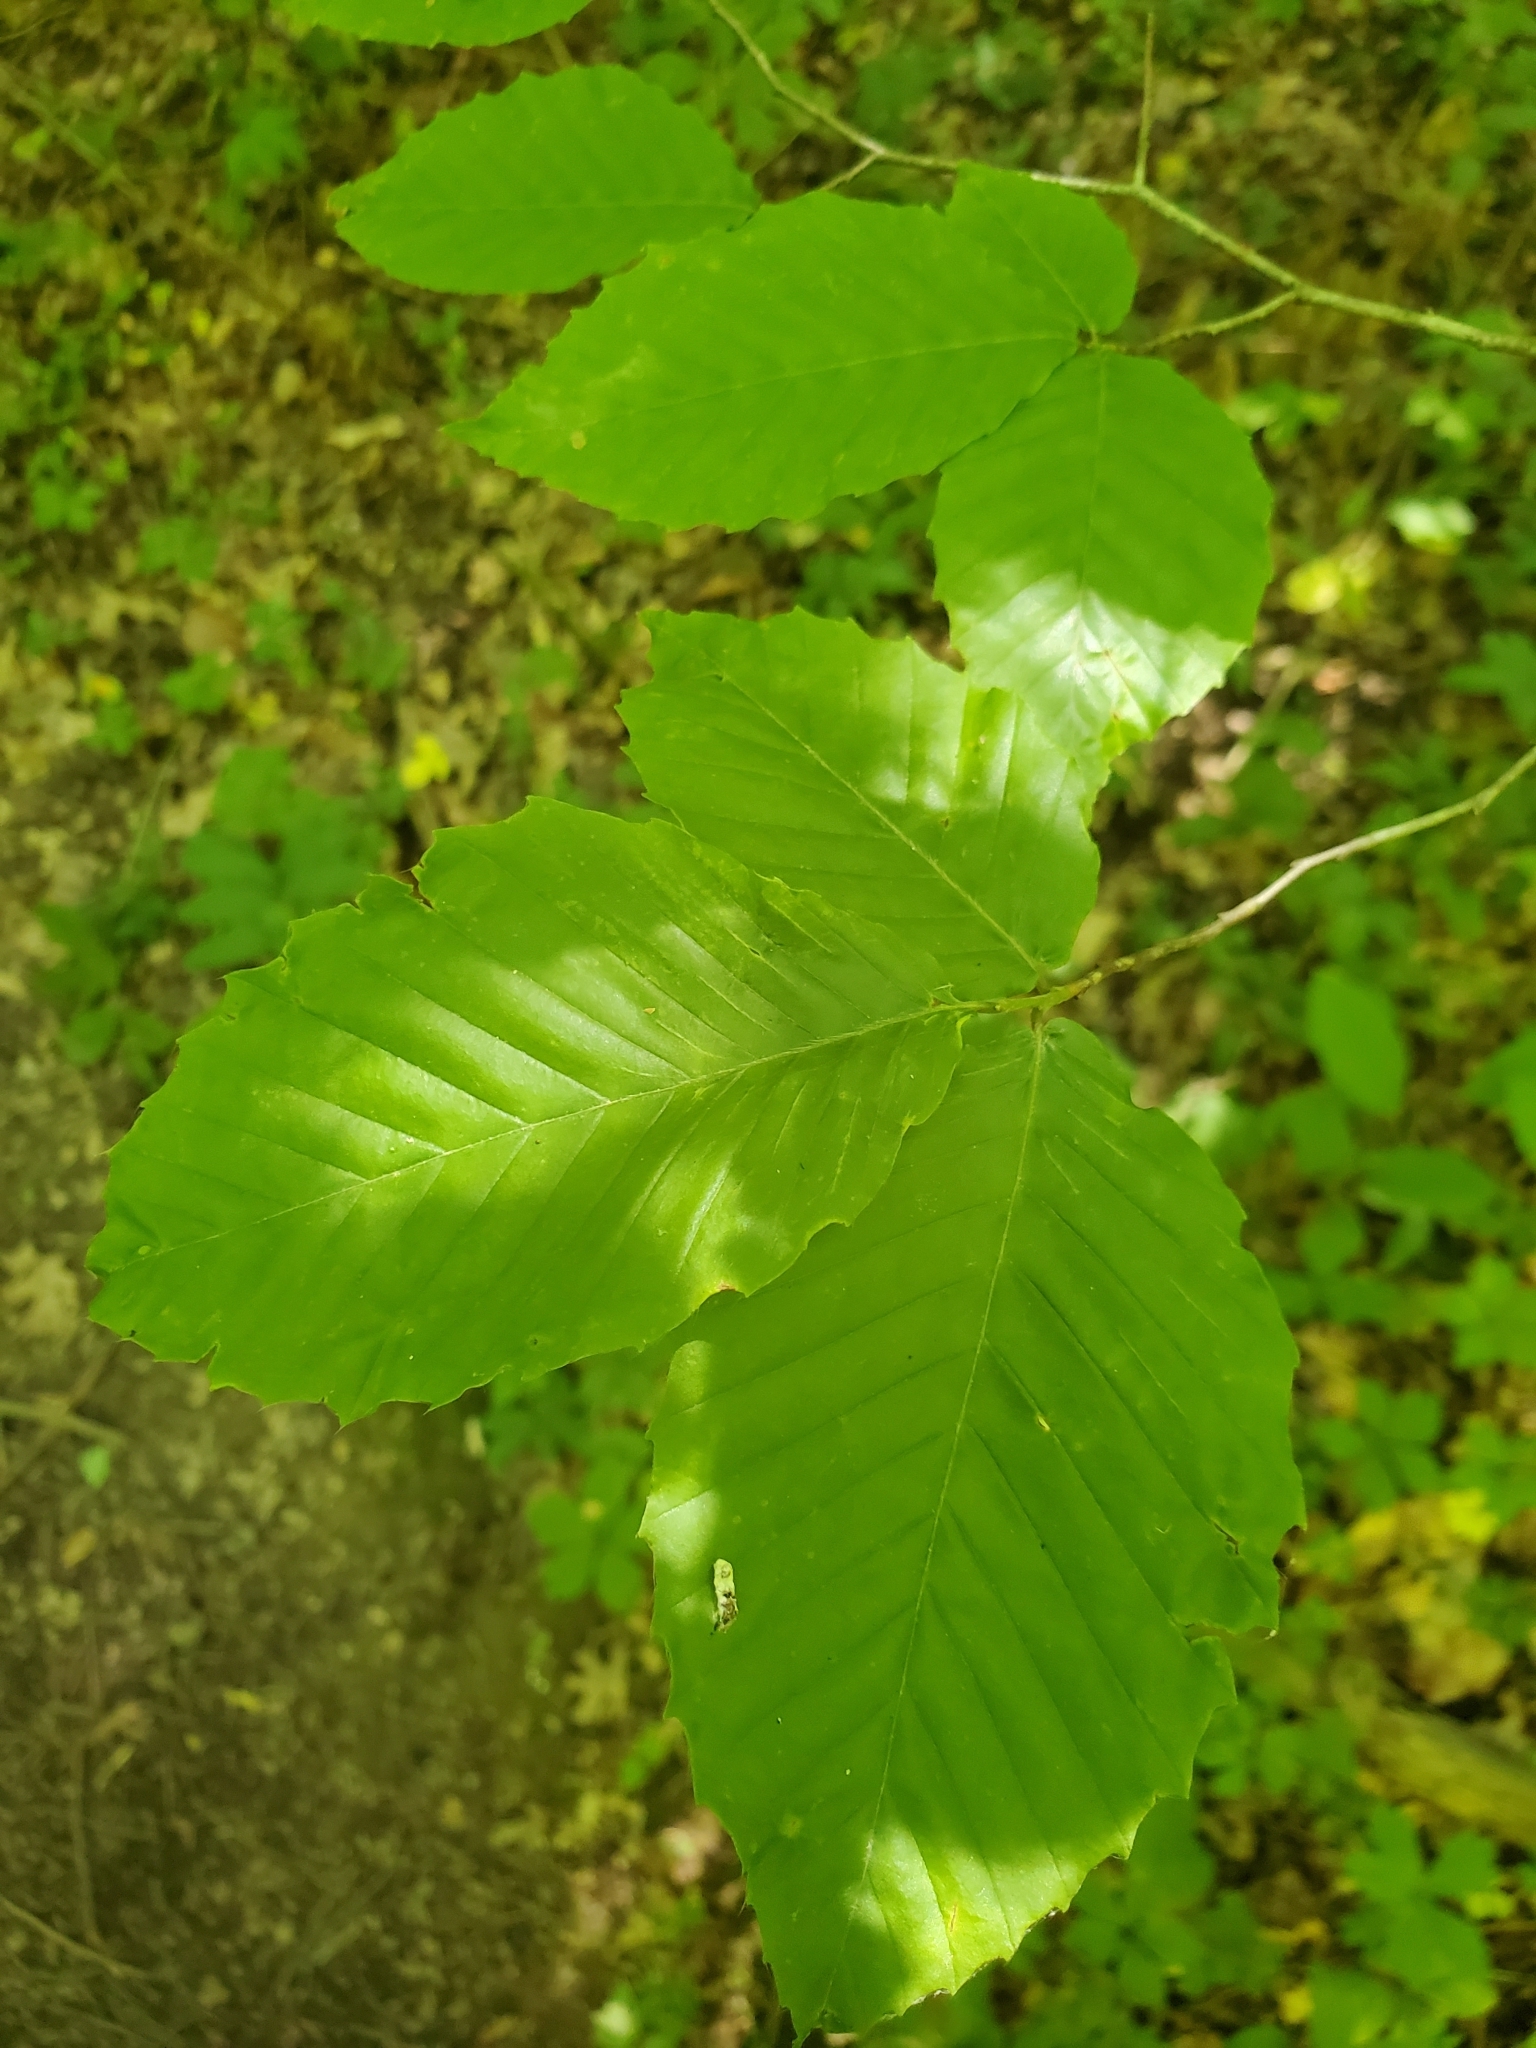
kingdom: Plantae
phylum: Tracheophyta
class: Magnoliopsida
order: Fagales
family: Fagaceae
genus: Fagus
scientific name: Fagus grandifolia
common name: American beech
